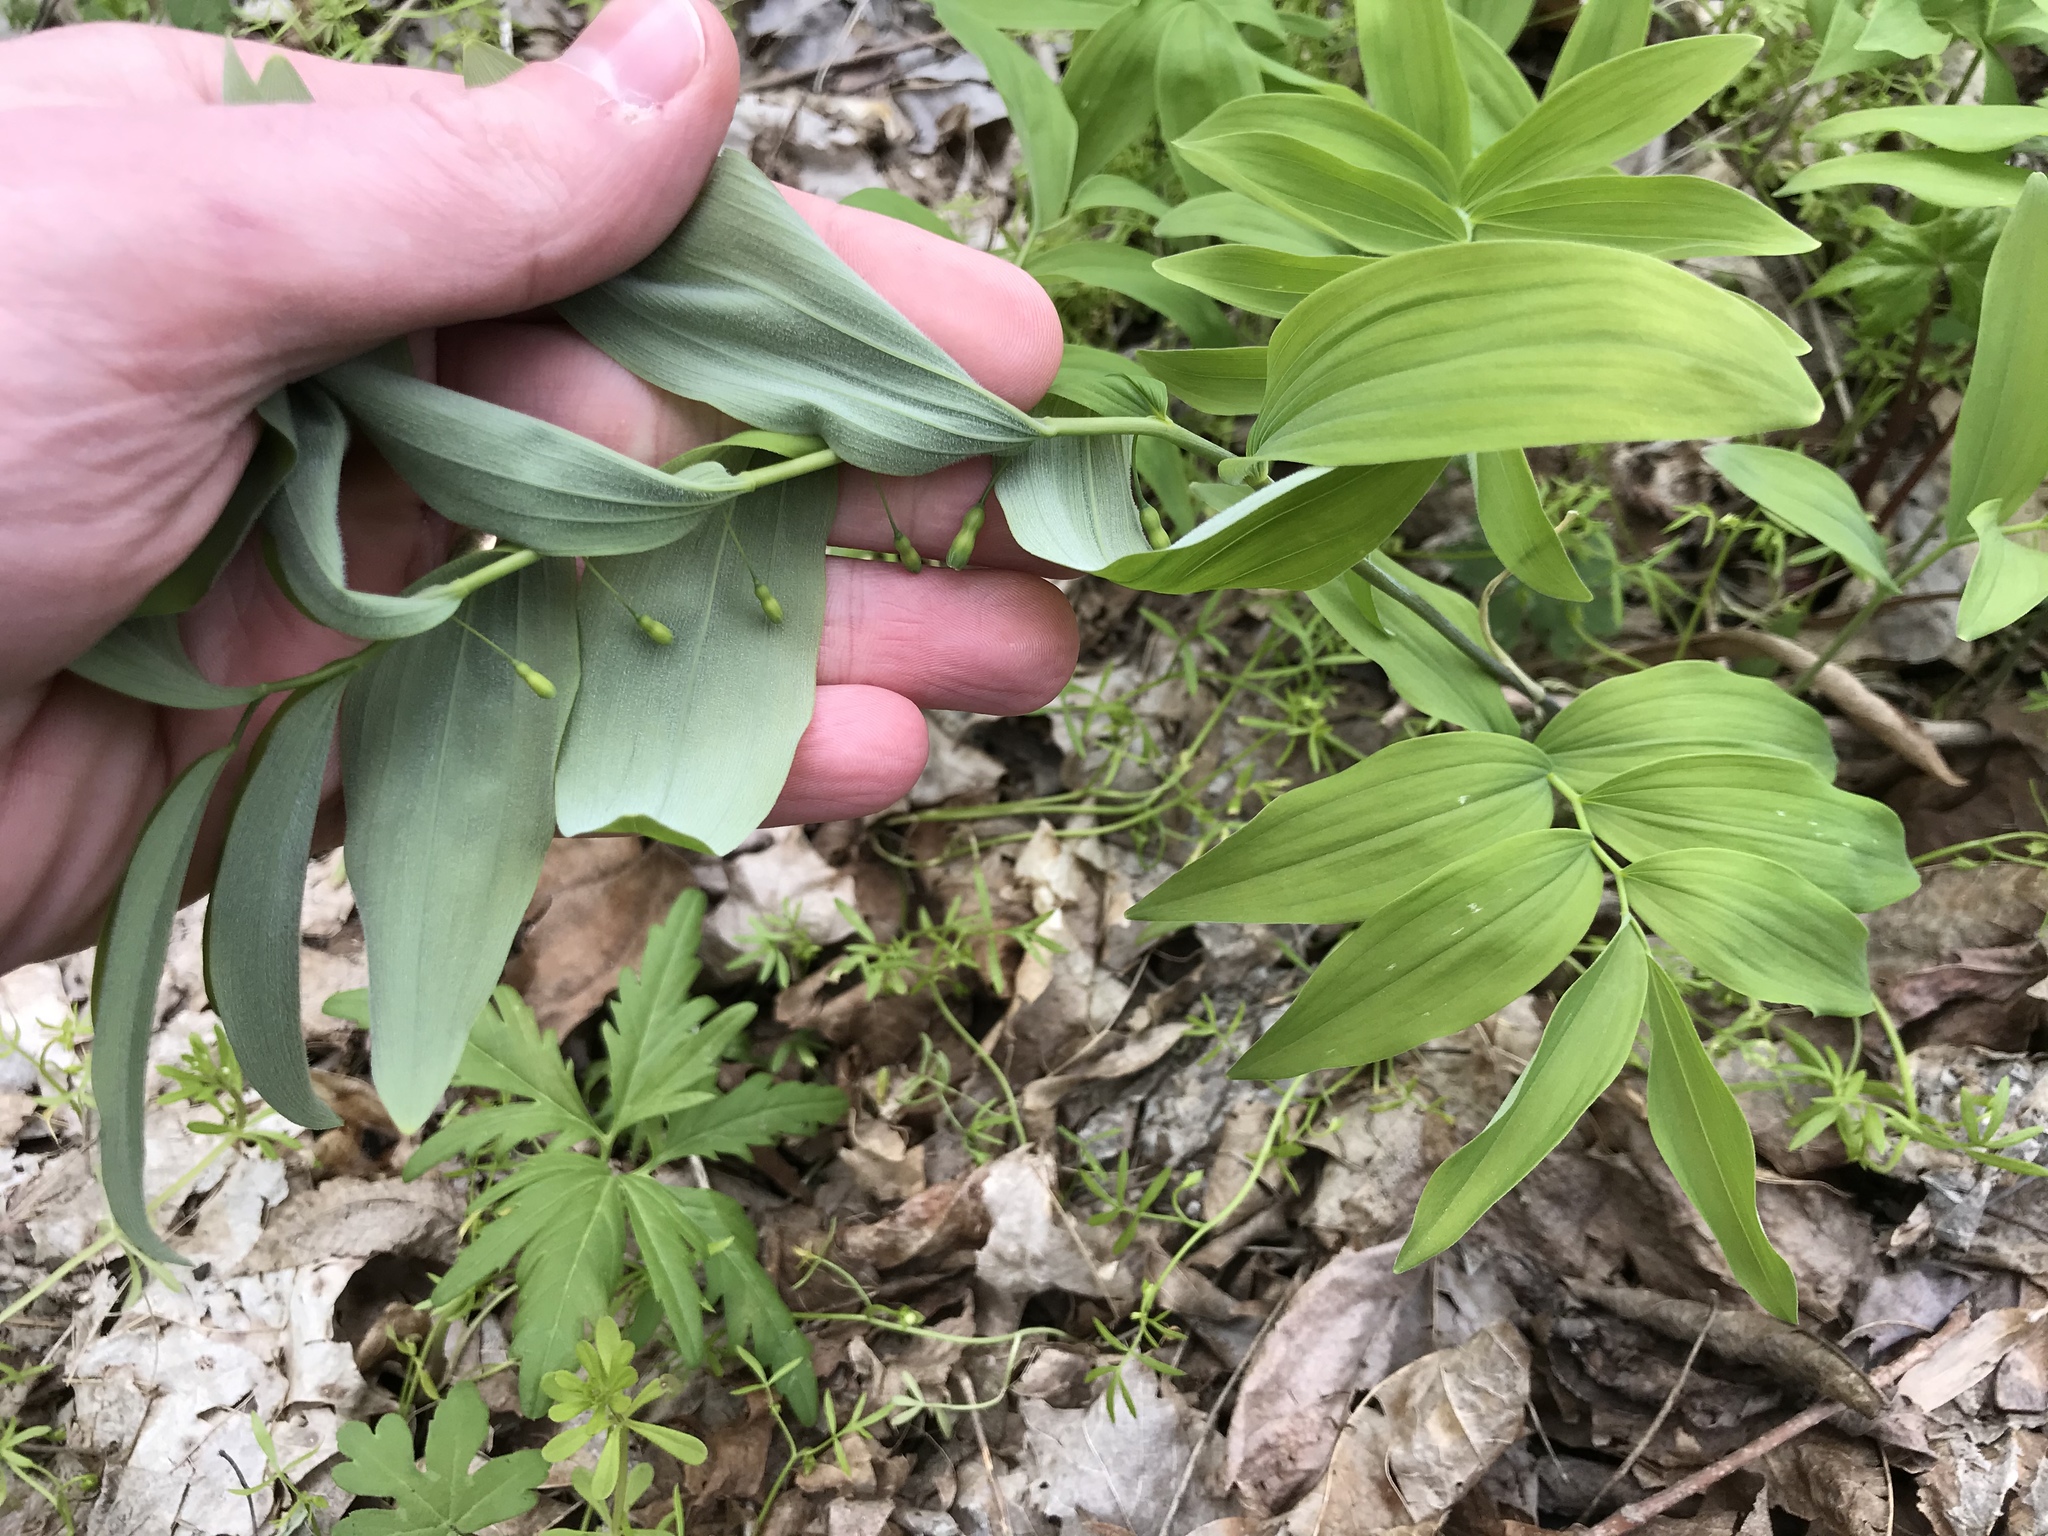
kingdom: Plantae
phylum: Tracheophyta
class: Liliopsida
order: Asparagales
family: Asparagaceae
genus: Polygonatum
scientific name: Polygonatum pubescens
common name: Downy solomon's seal
